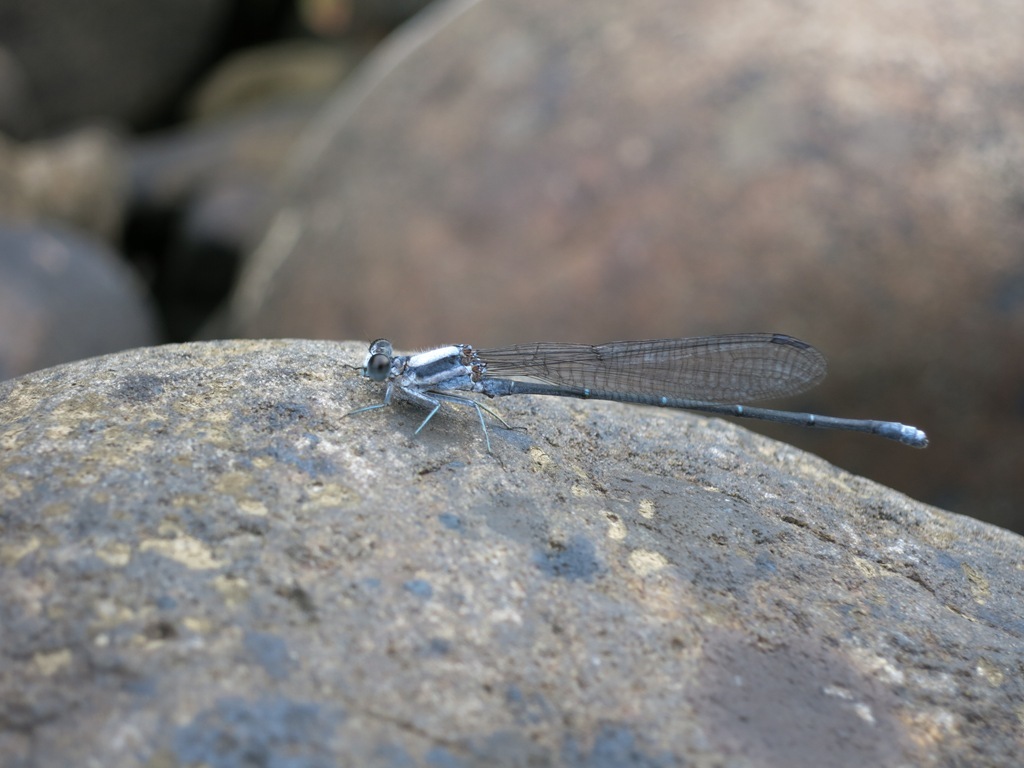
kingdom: Animalia
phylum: Arthropoda
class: Insecta
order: Odonata
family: Coenagrionidae
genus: Argia
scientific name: Argia moesta
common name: Powdered dancer
